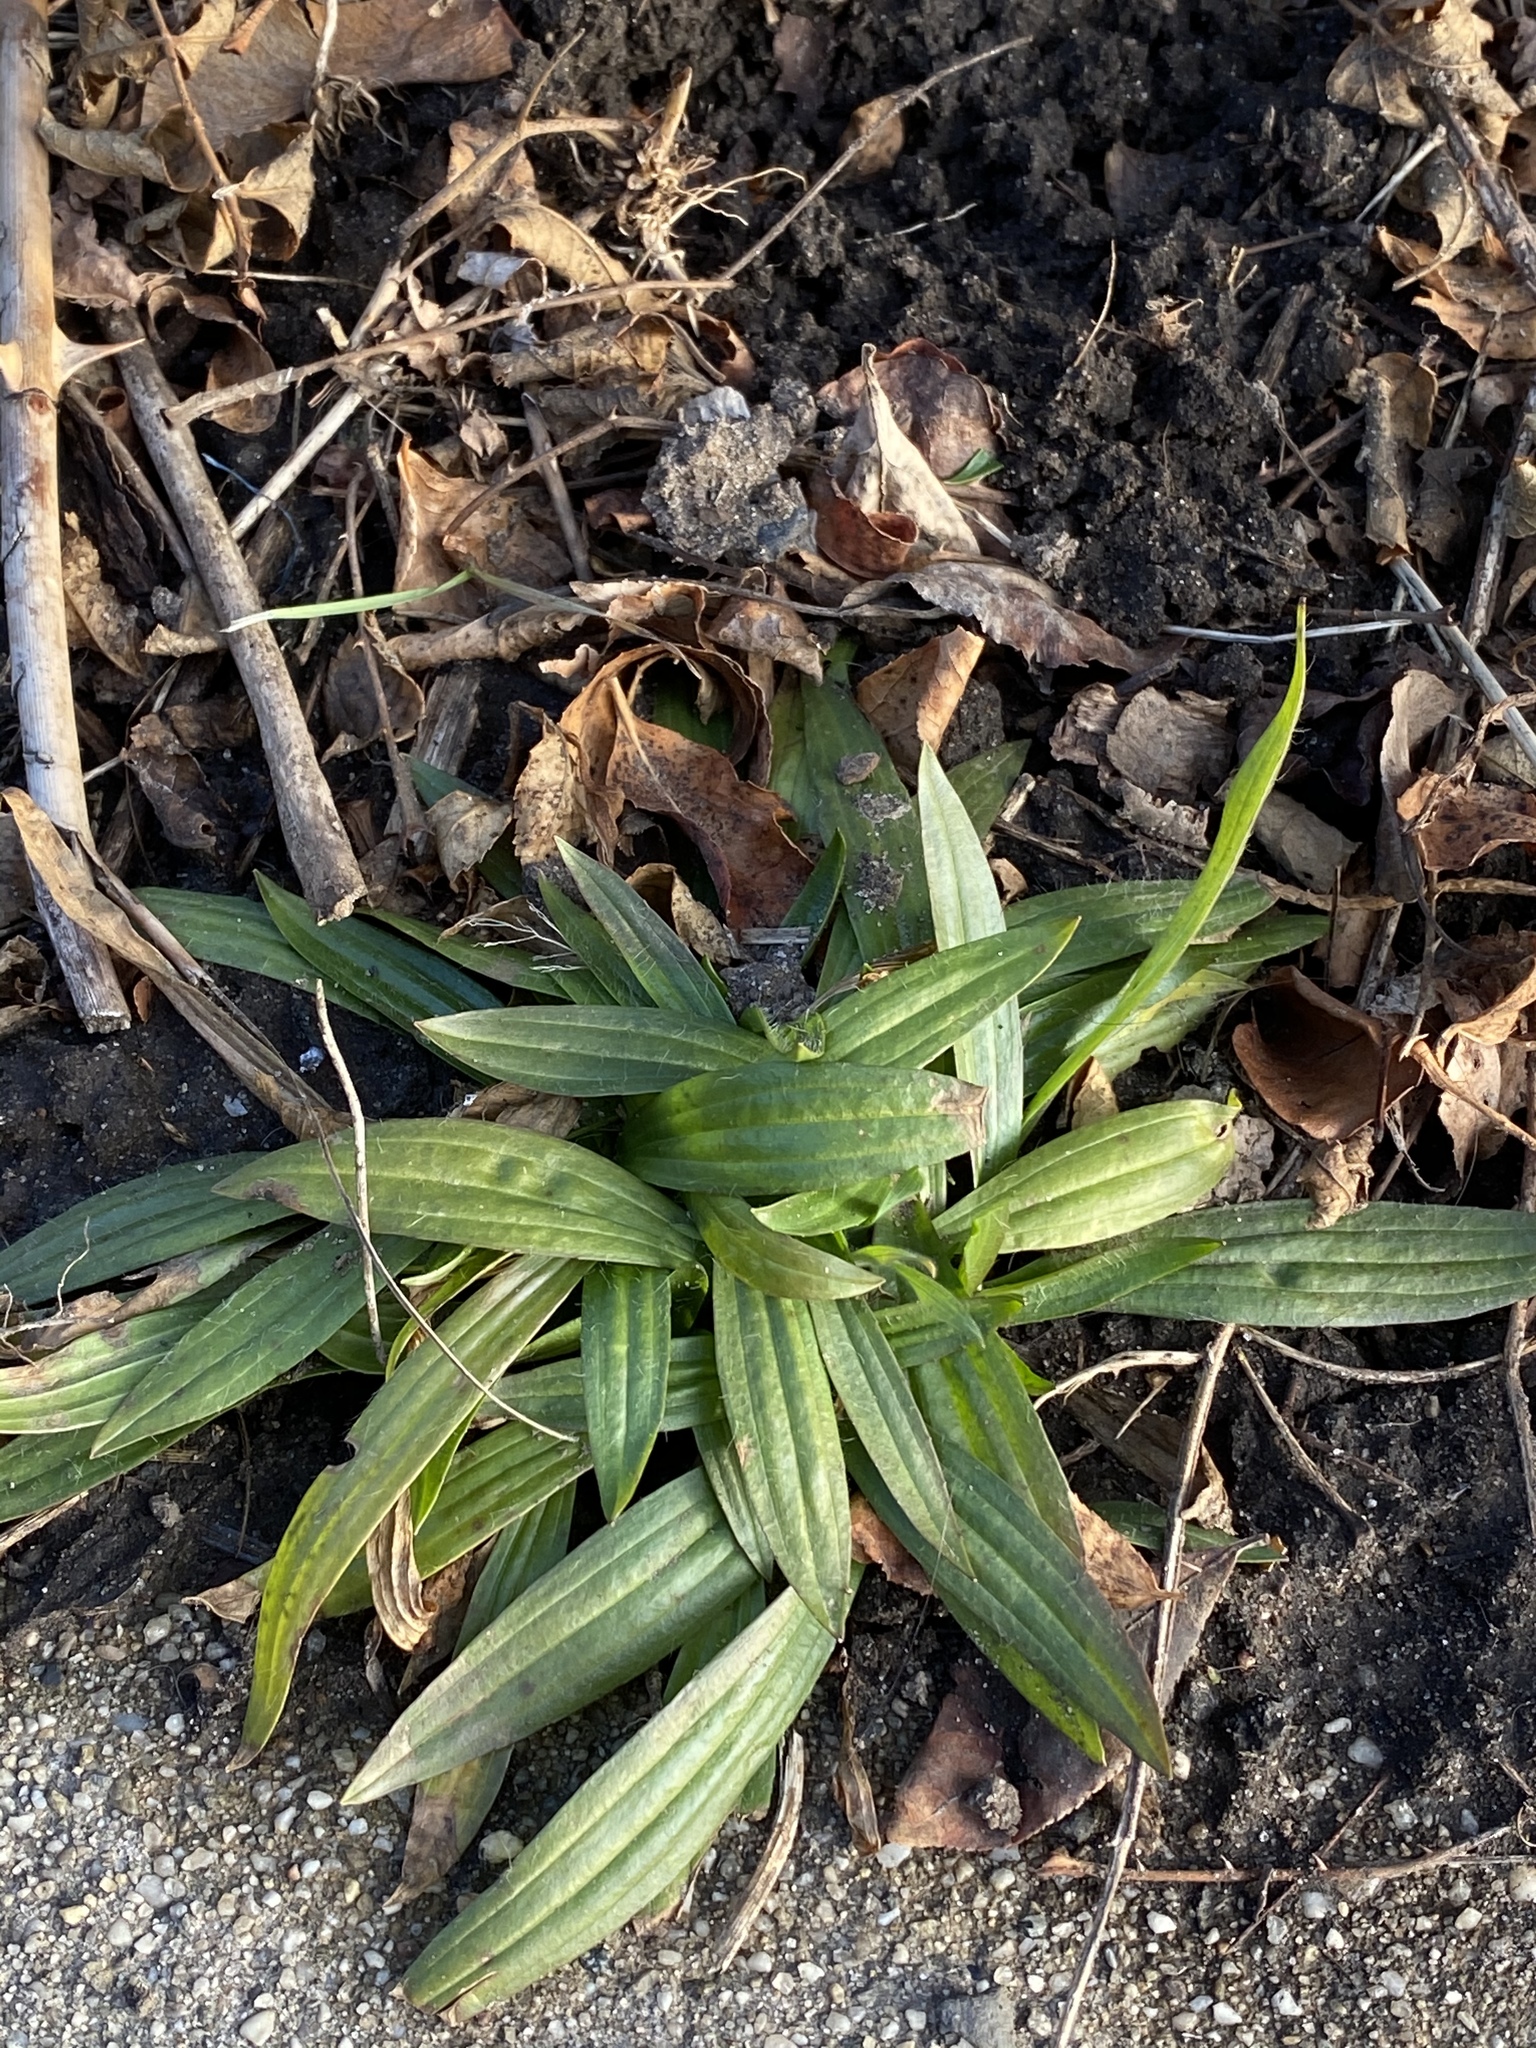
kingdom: Plantae
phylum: Tracheophyta
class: Magnoliopsida
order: Lamiales
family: Plantaginaceae
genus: Plantago
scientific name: Plantago lanceolata
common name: Ribwort plantain
